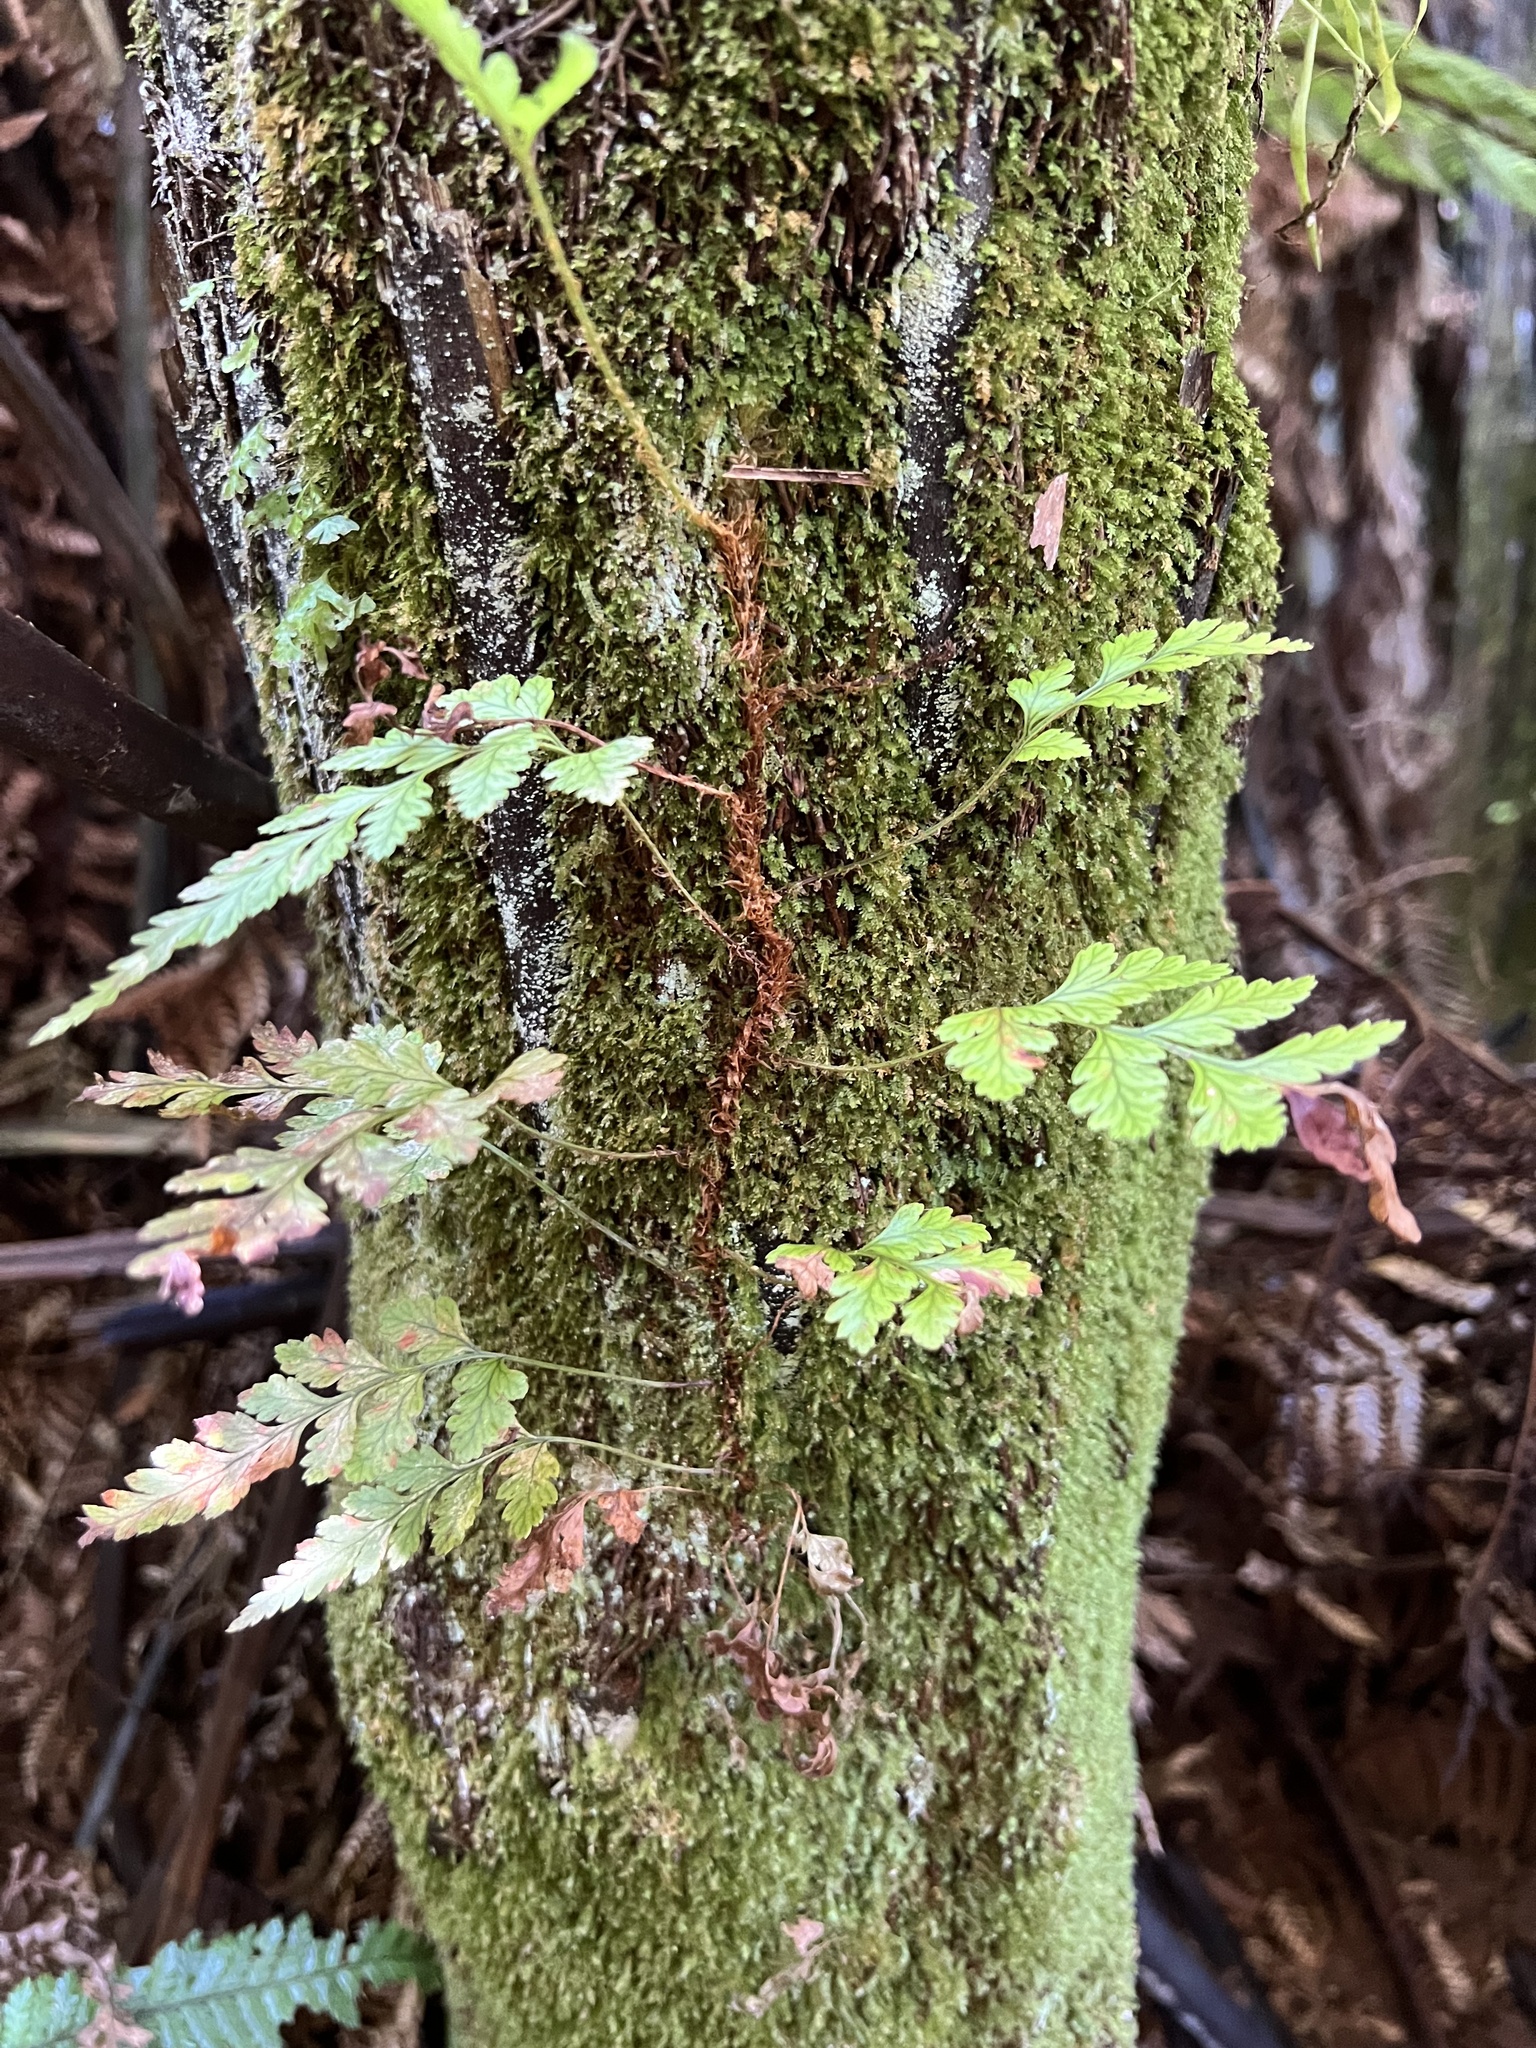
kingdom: Plantae
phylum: Tracheophyta
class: Polypodiopsida
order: Polypodiales
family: Dryopteridaceae
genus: Rumohra
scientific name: Rumohra adiantiformis
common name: Leather fern
